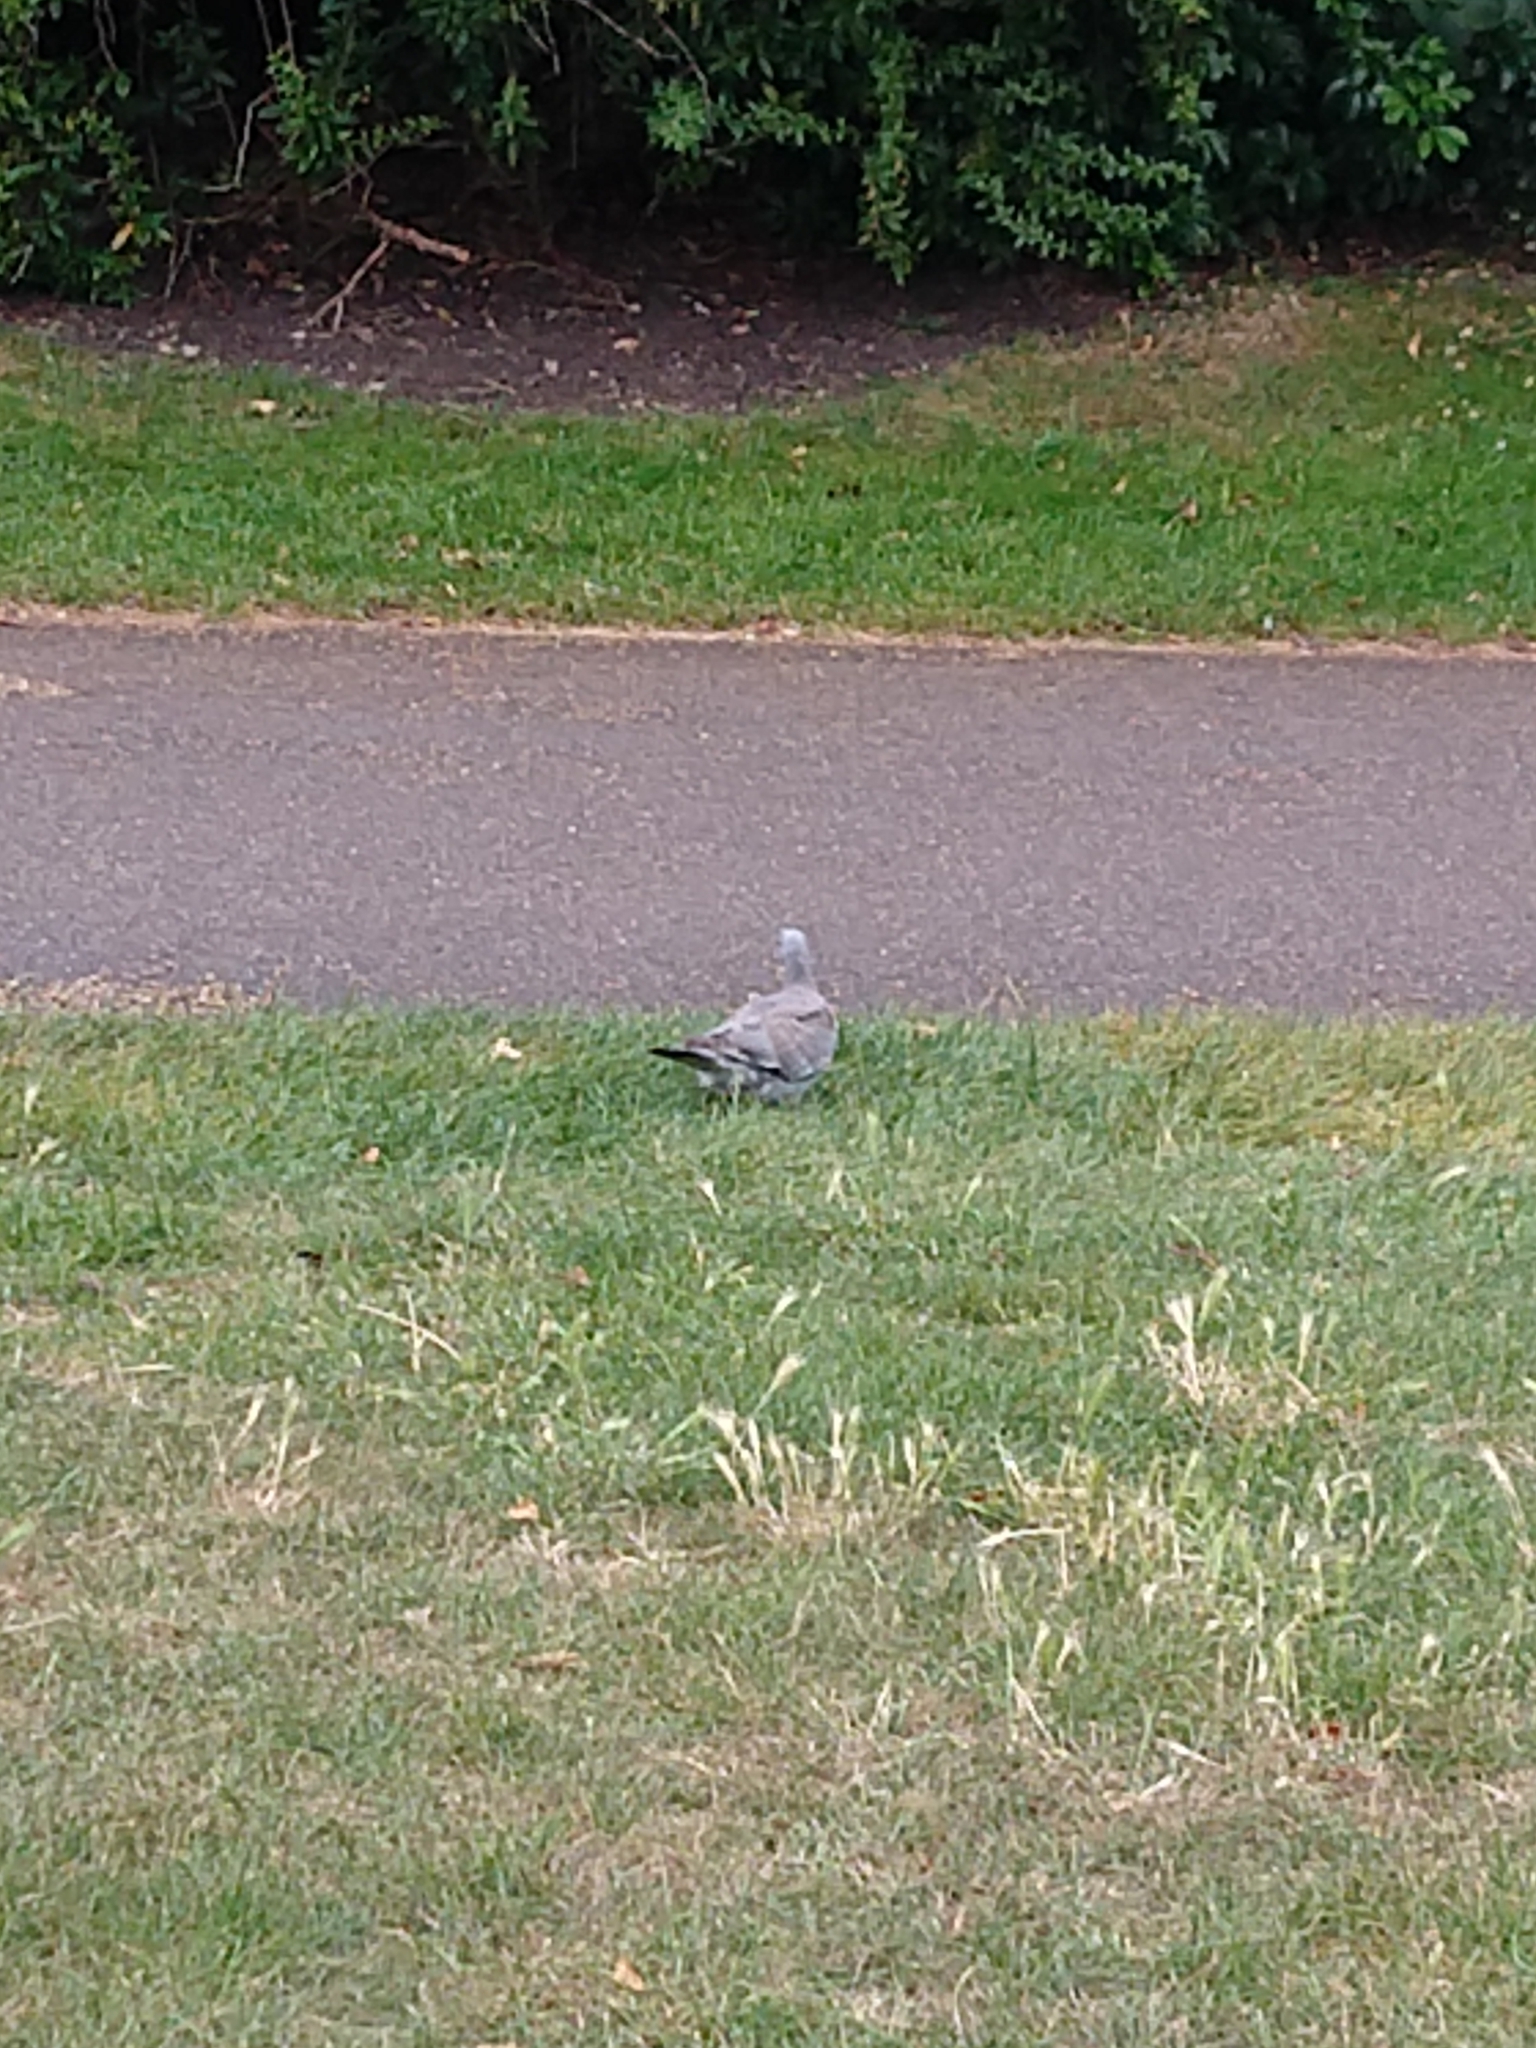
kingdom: Animalia
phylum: Chordata
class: Aves
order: Columbiformes
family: Columbidae
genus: Columba
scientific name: Columba palumbus
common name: Common wood pigeon
